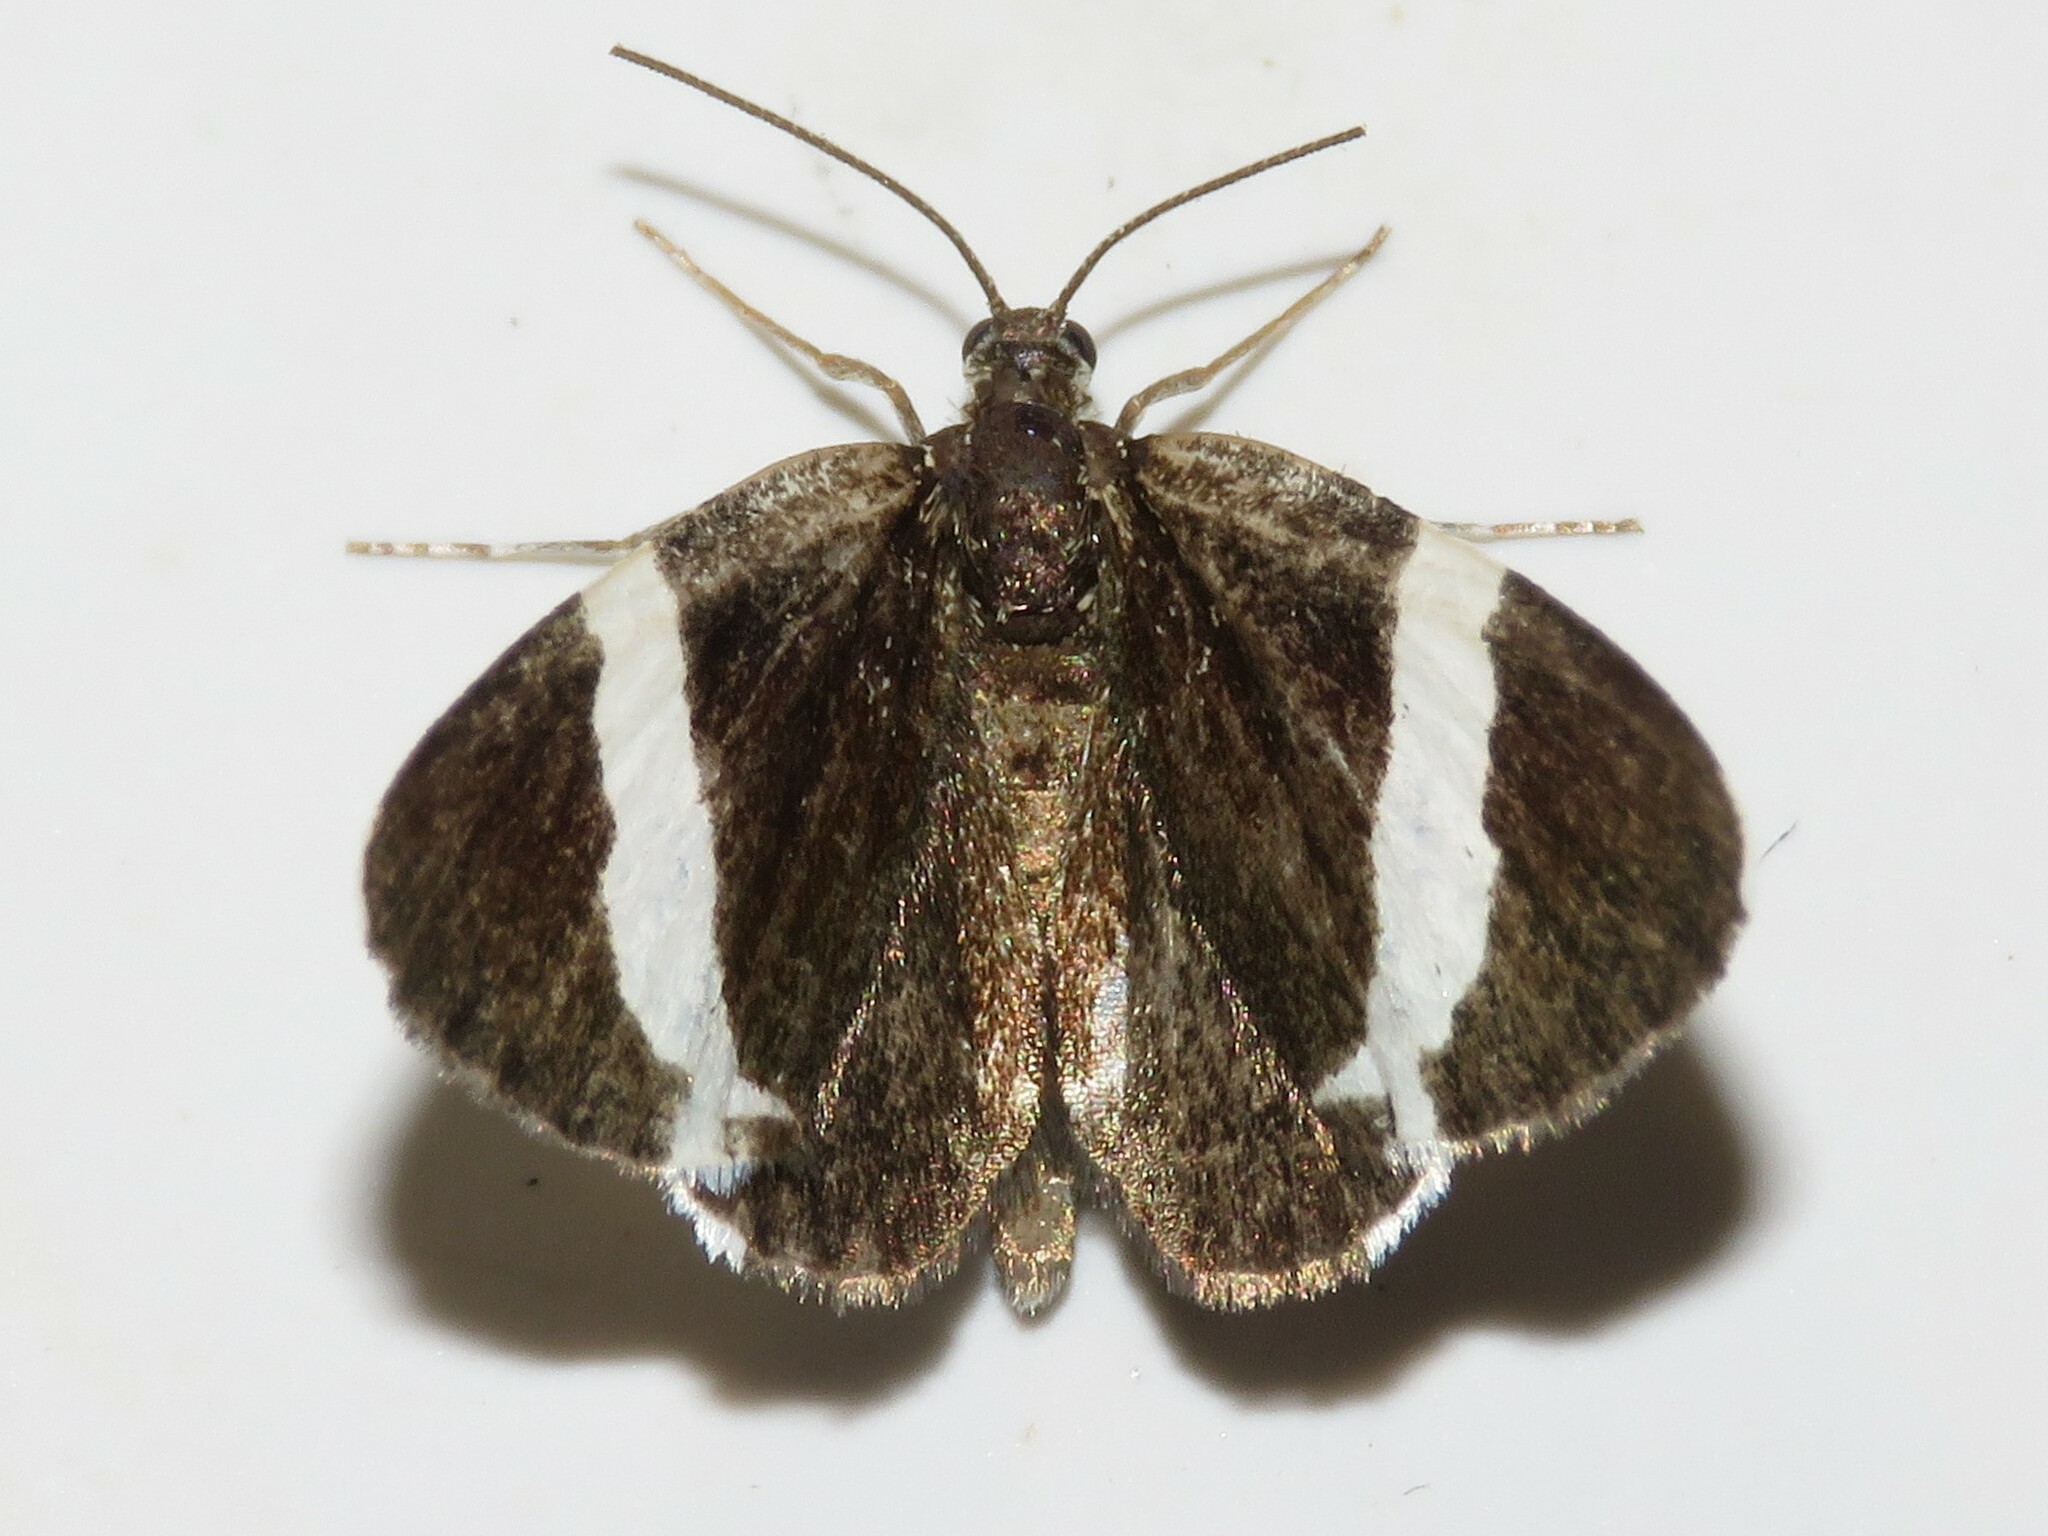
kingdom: Animalia
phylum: Arthropoda
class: Insecta
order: Lepidoptera
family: Geometridae
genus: Trichodezia
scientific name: Trichodezia albovittata
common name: White striped black
